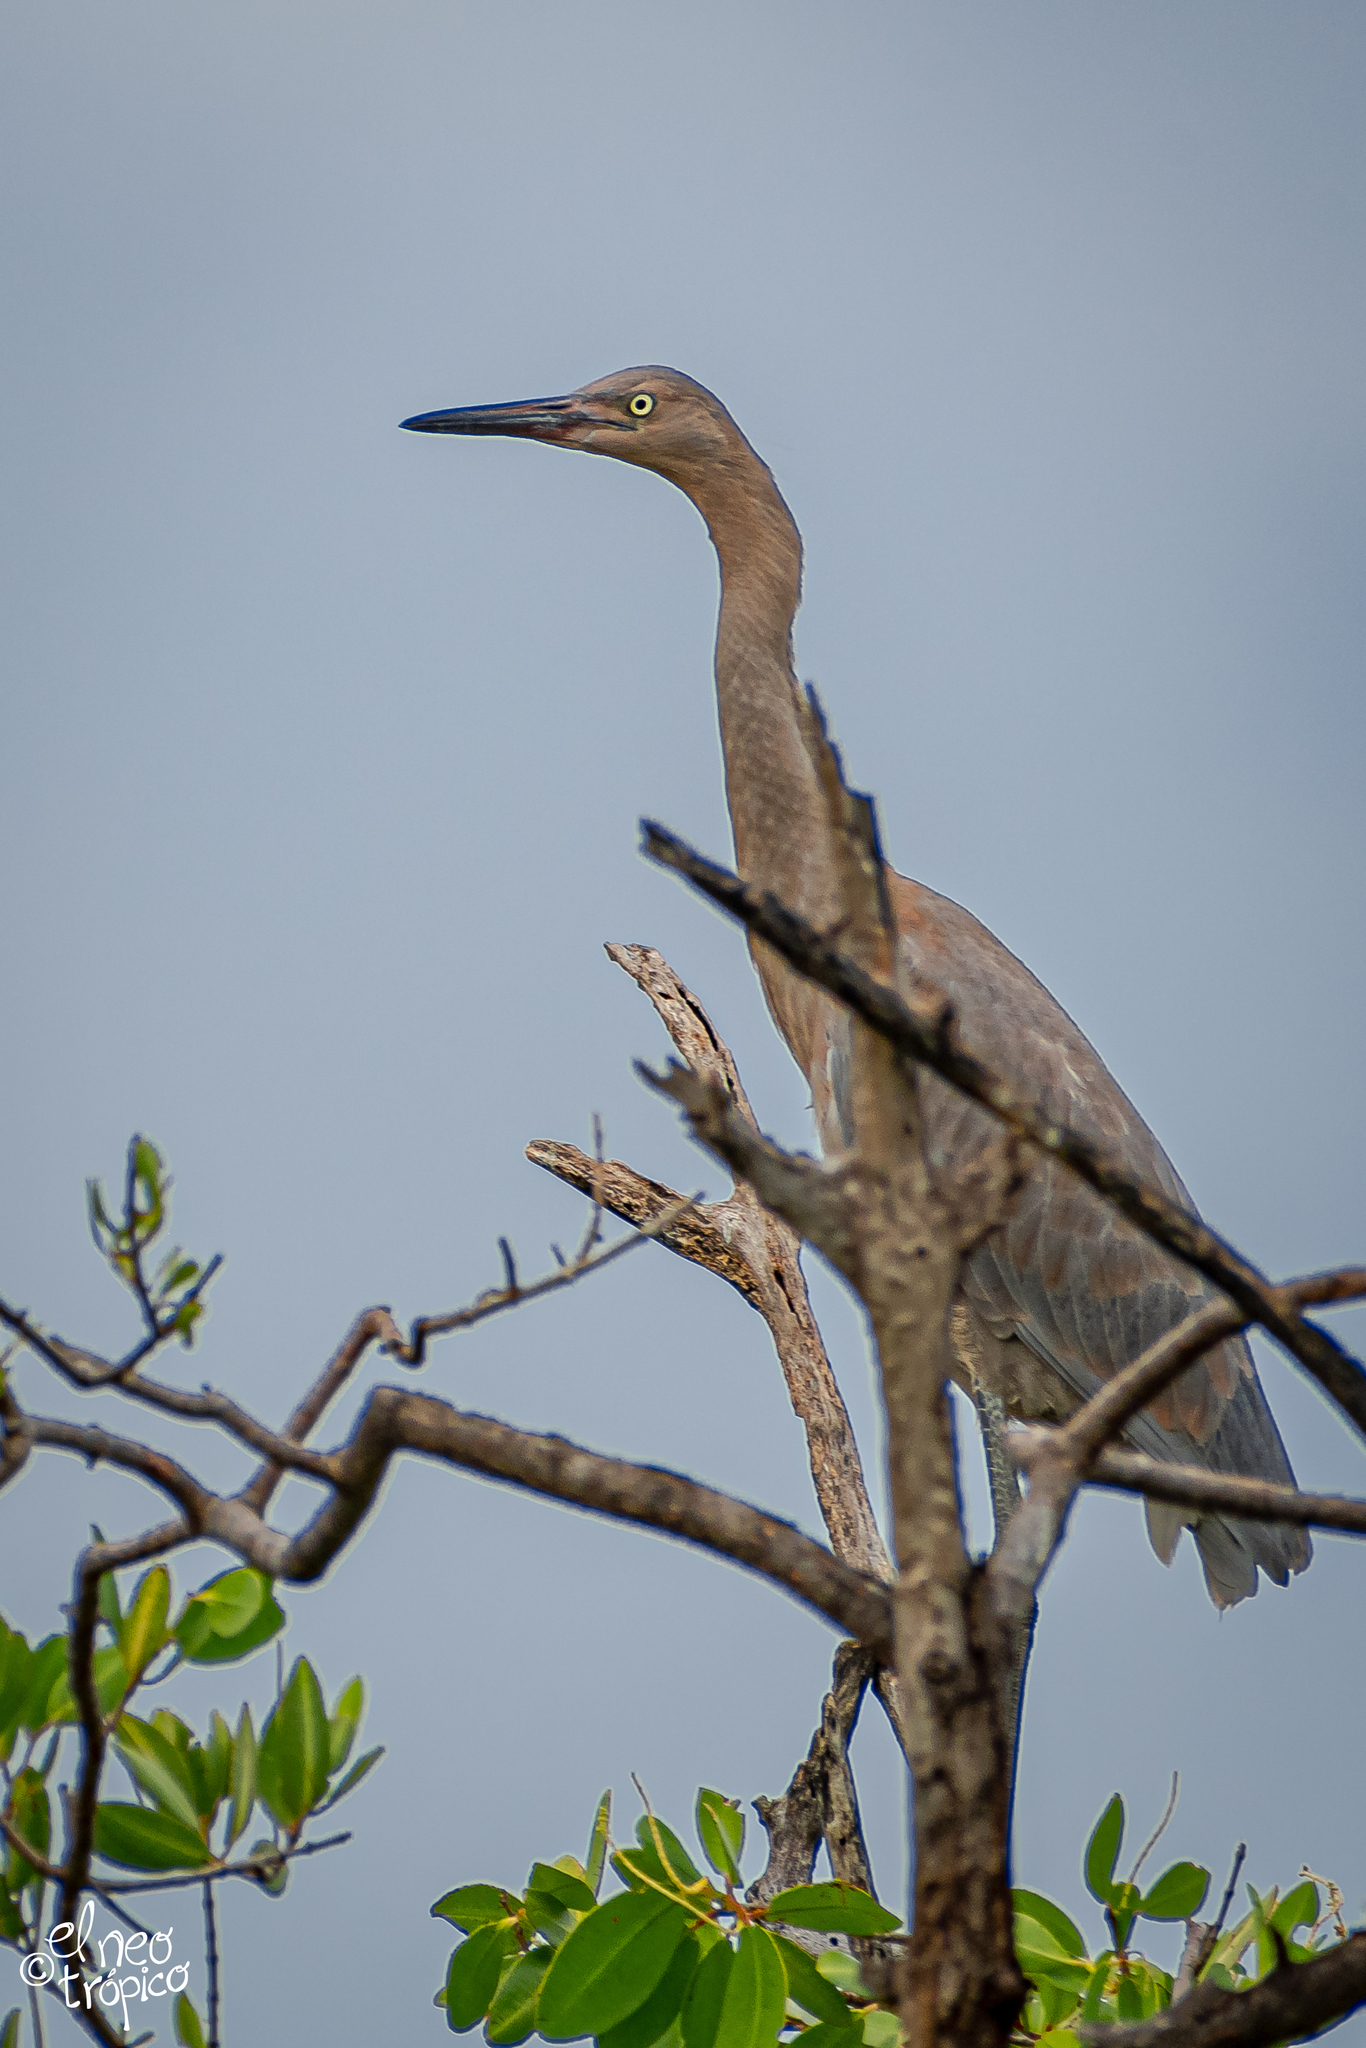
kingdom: Animalia
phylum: Chordata
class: Aves
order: Pelecaniformes
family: Ardeidae
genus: Egretta
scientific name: Egretta rufescens
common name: Reddish egret
